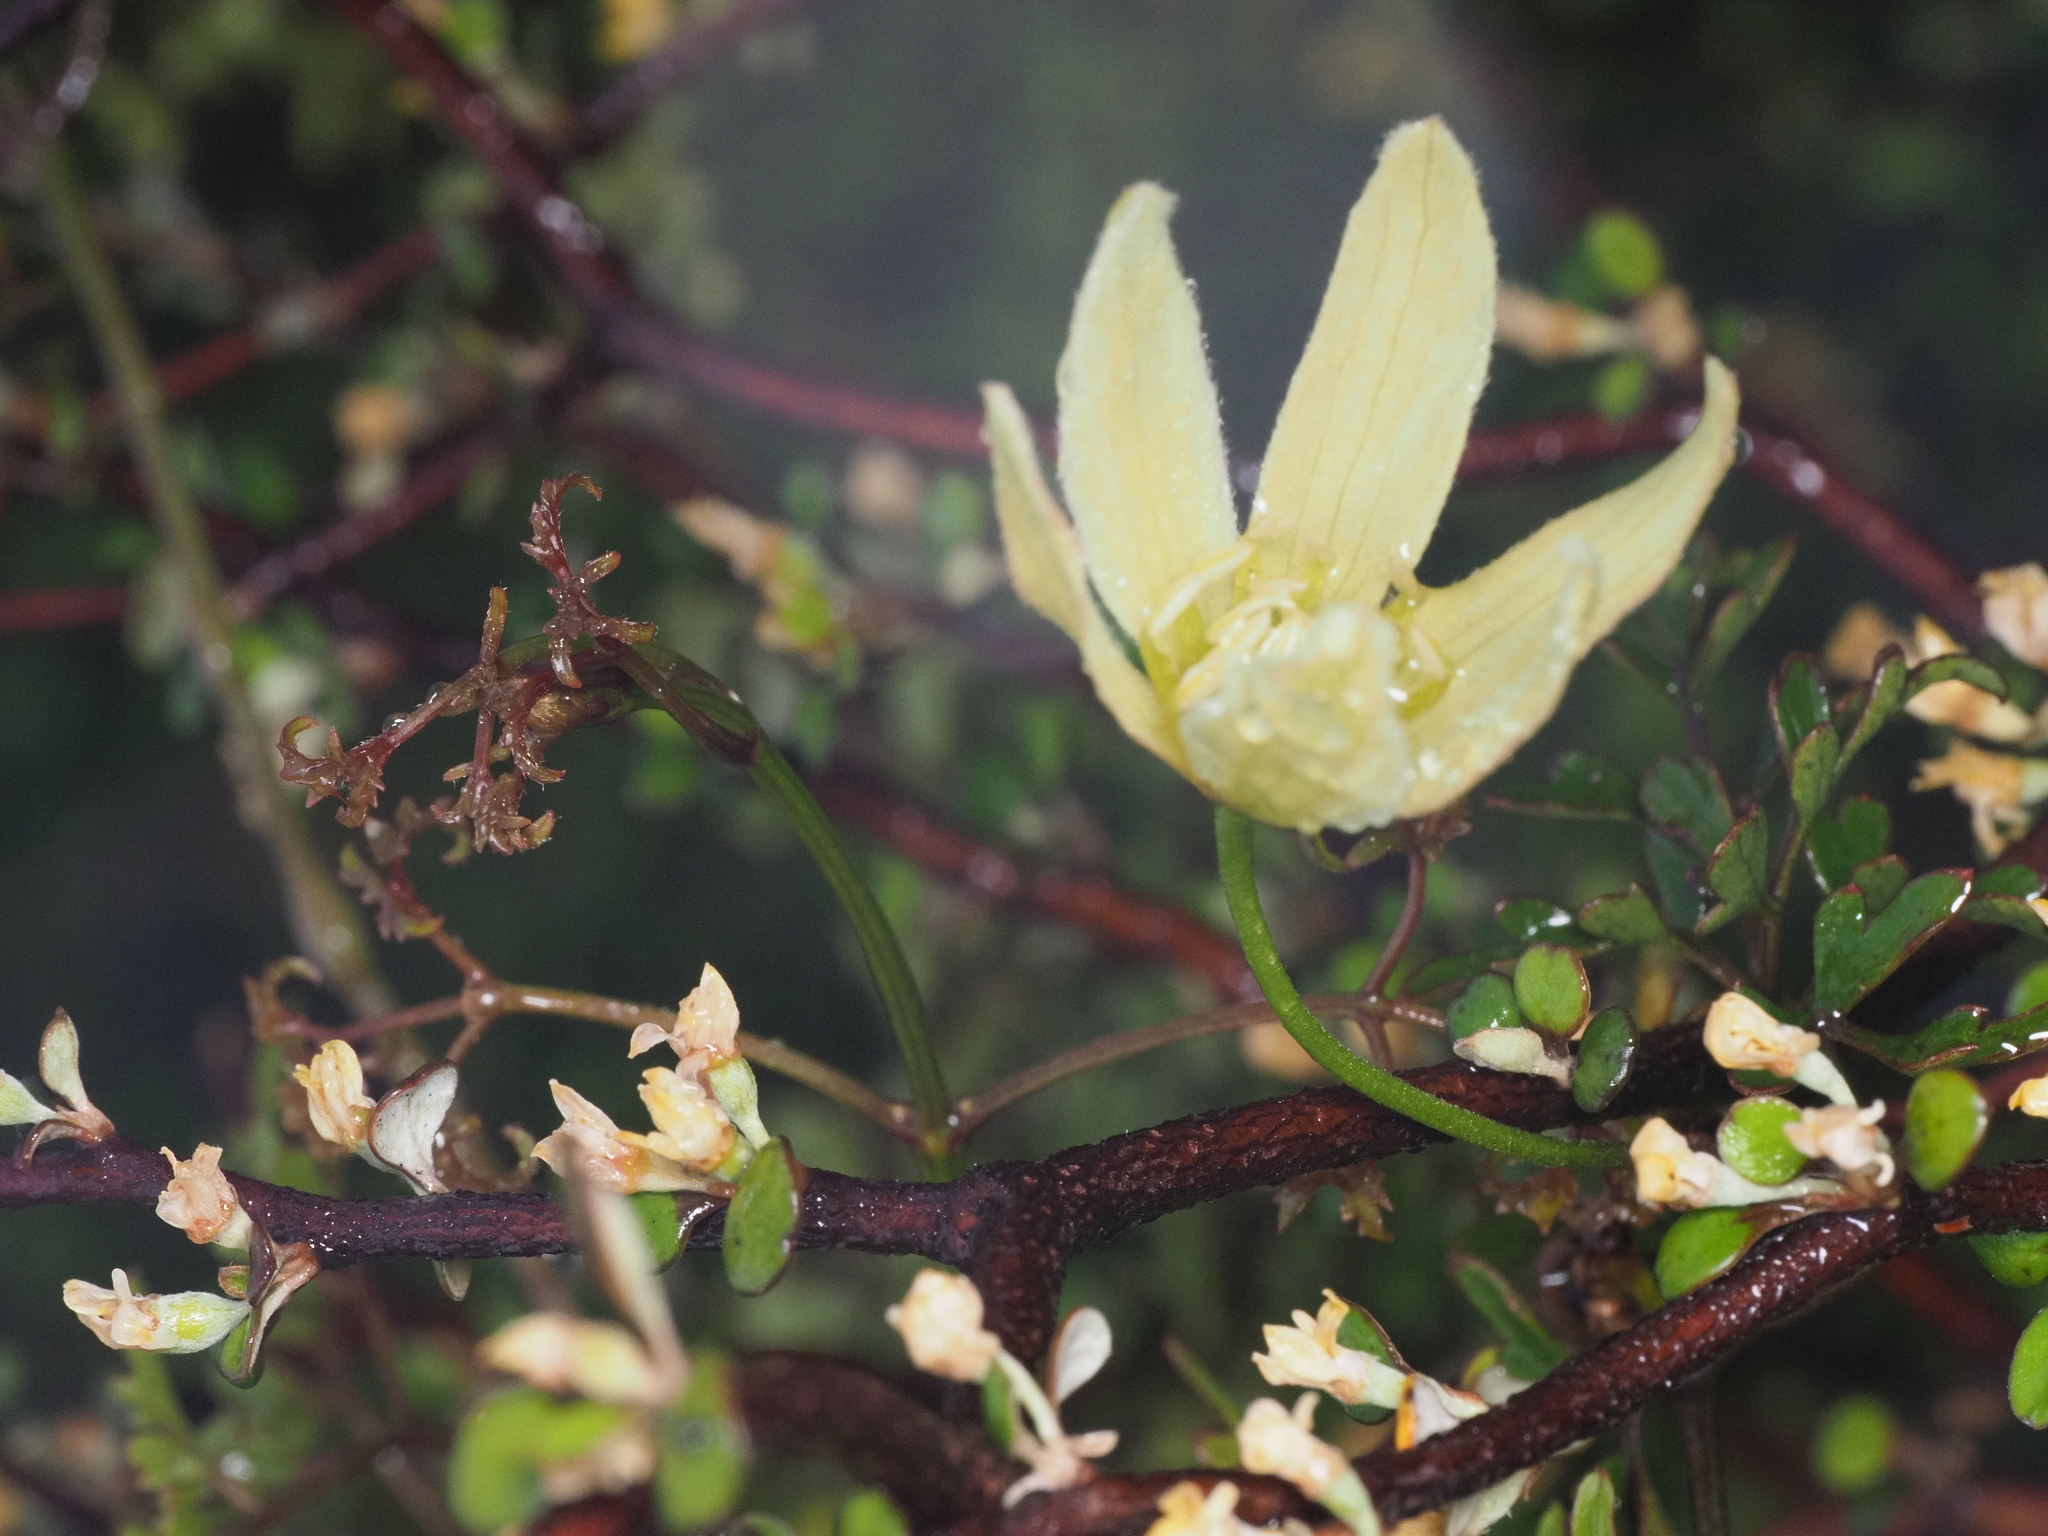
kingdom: Plantae
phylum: Tracheophyta
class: Magnoliopsida
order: Ranunculales
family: Ranunculaceae
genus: Clematis
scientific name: Clematis forsteri
